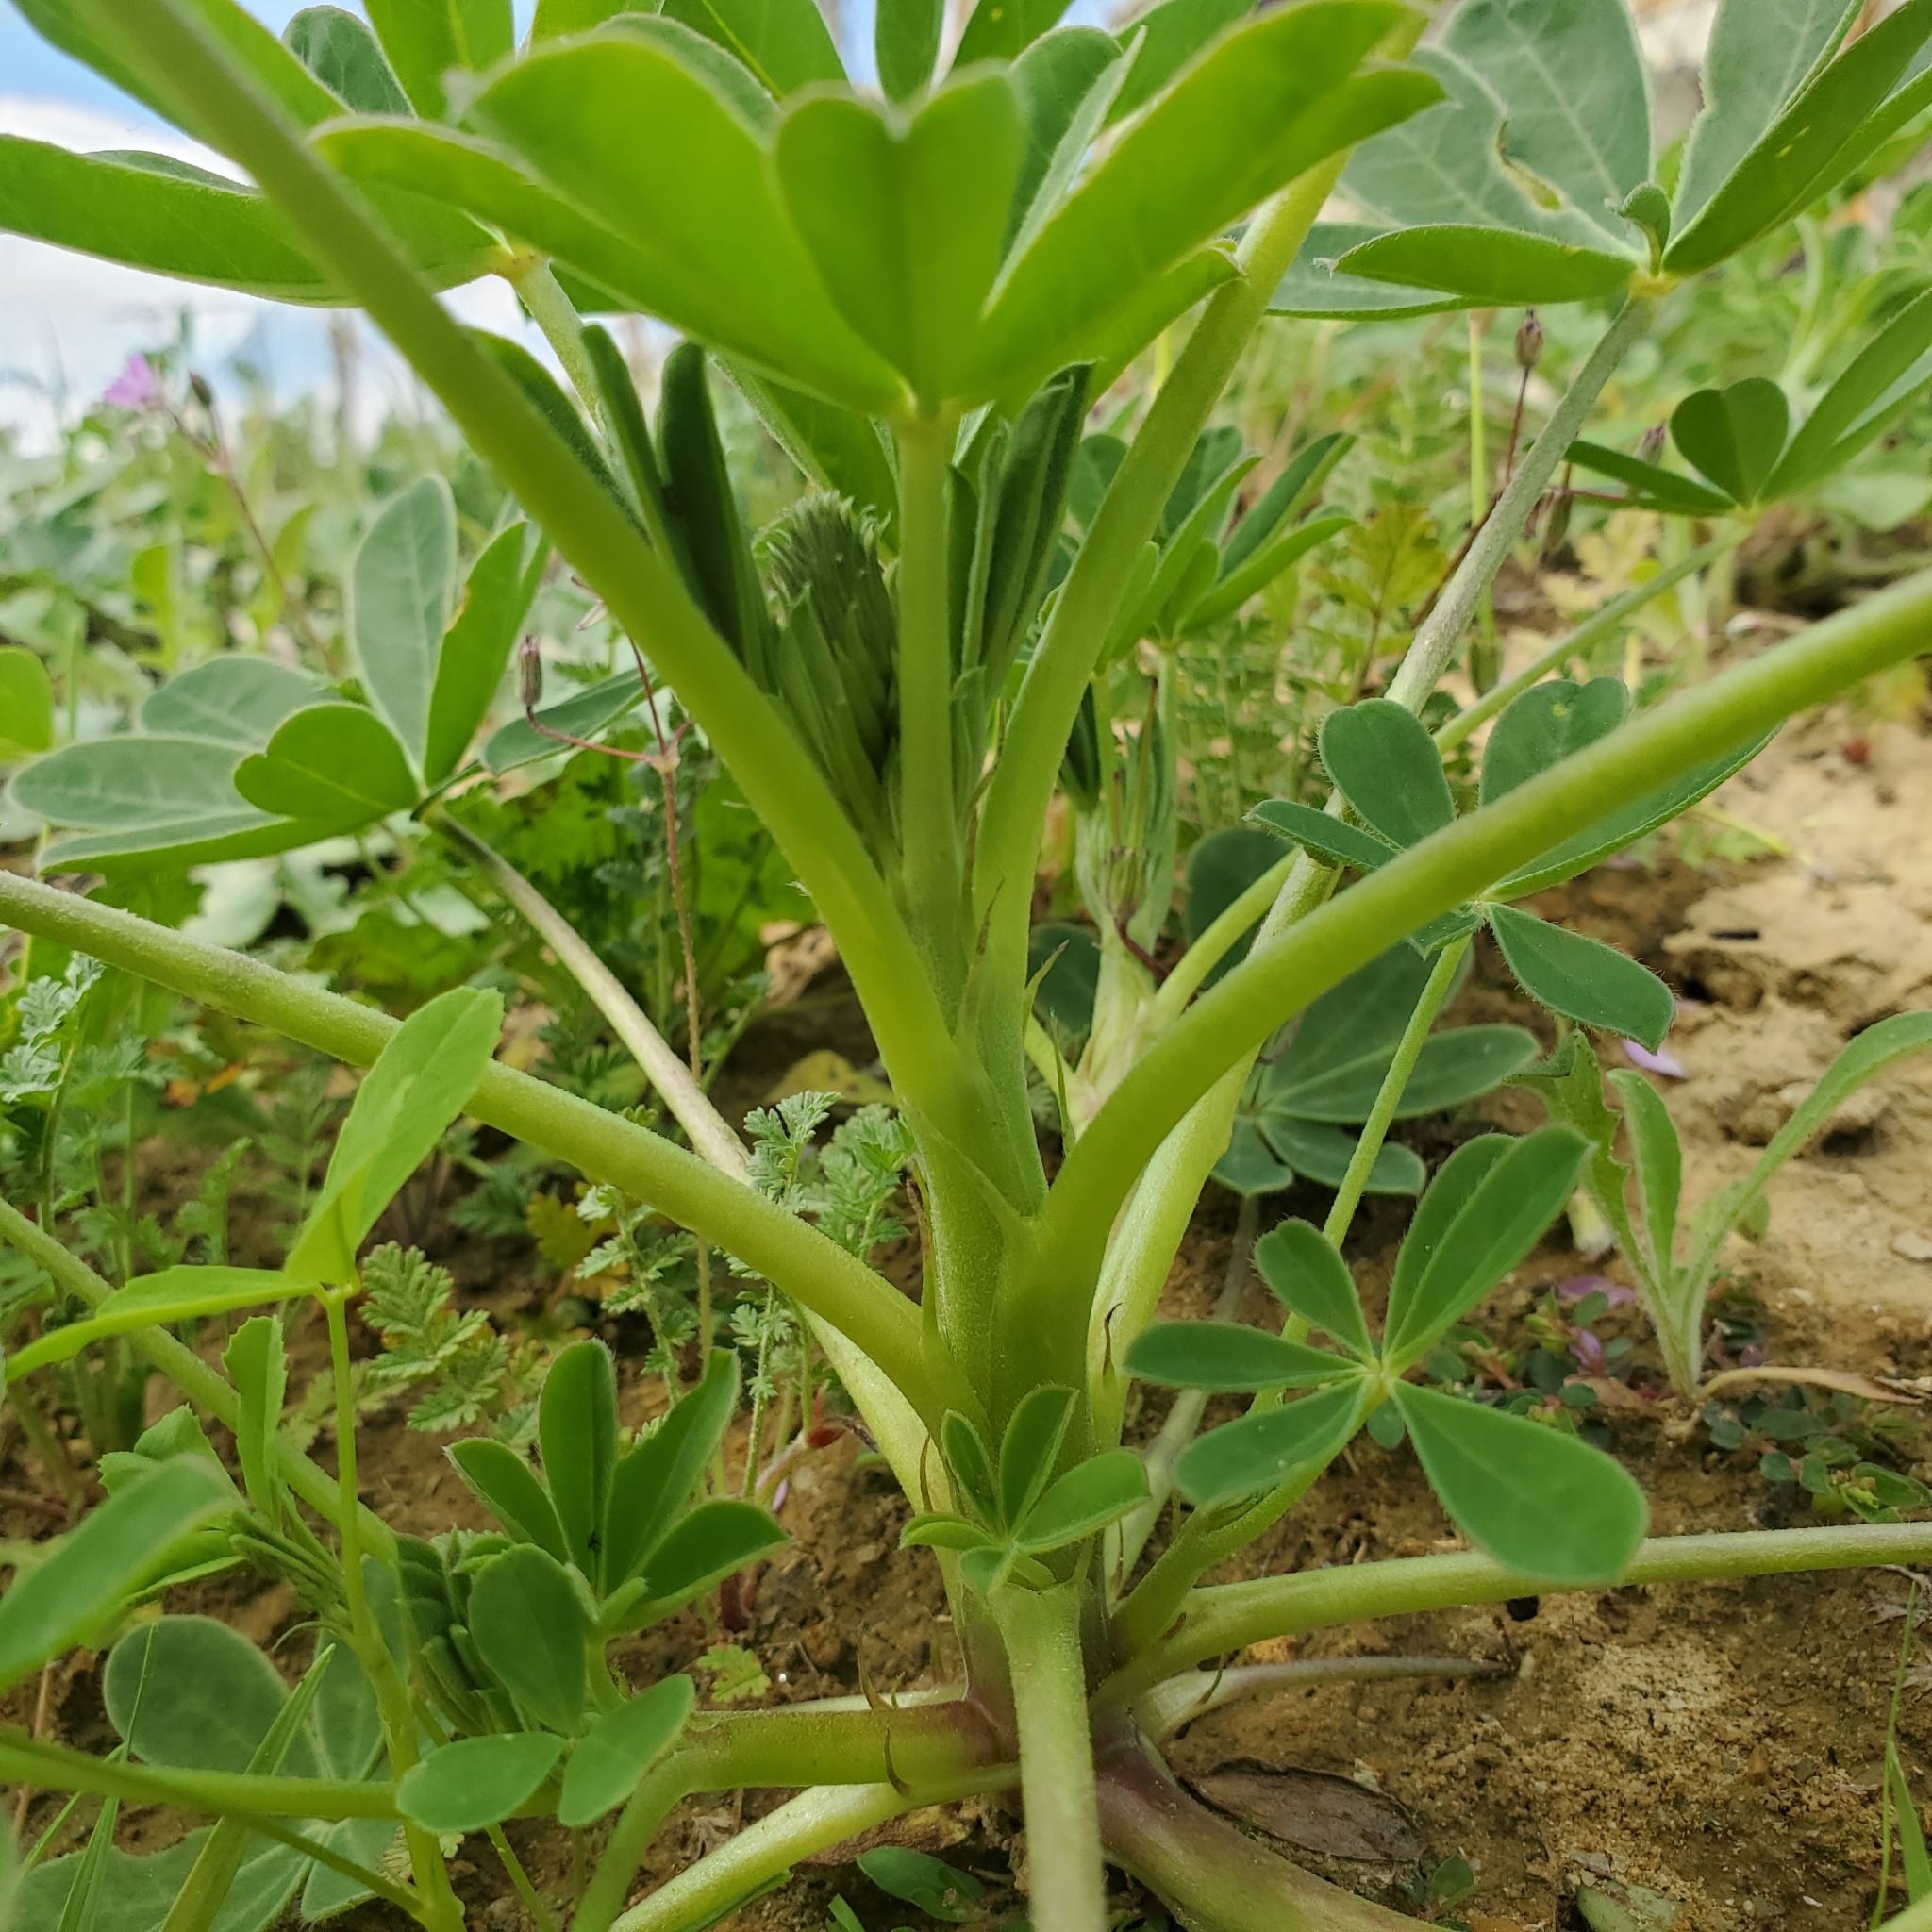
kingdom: Plantae
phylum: Tracheophyta
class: Magnoliopsida
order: Fabales
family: Fabaceae
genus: Lupinus
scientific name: Lupinus succulentus
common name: Arroyo lupine
